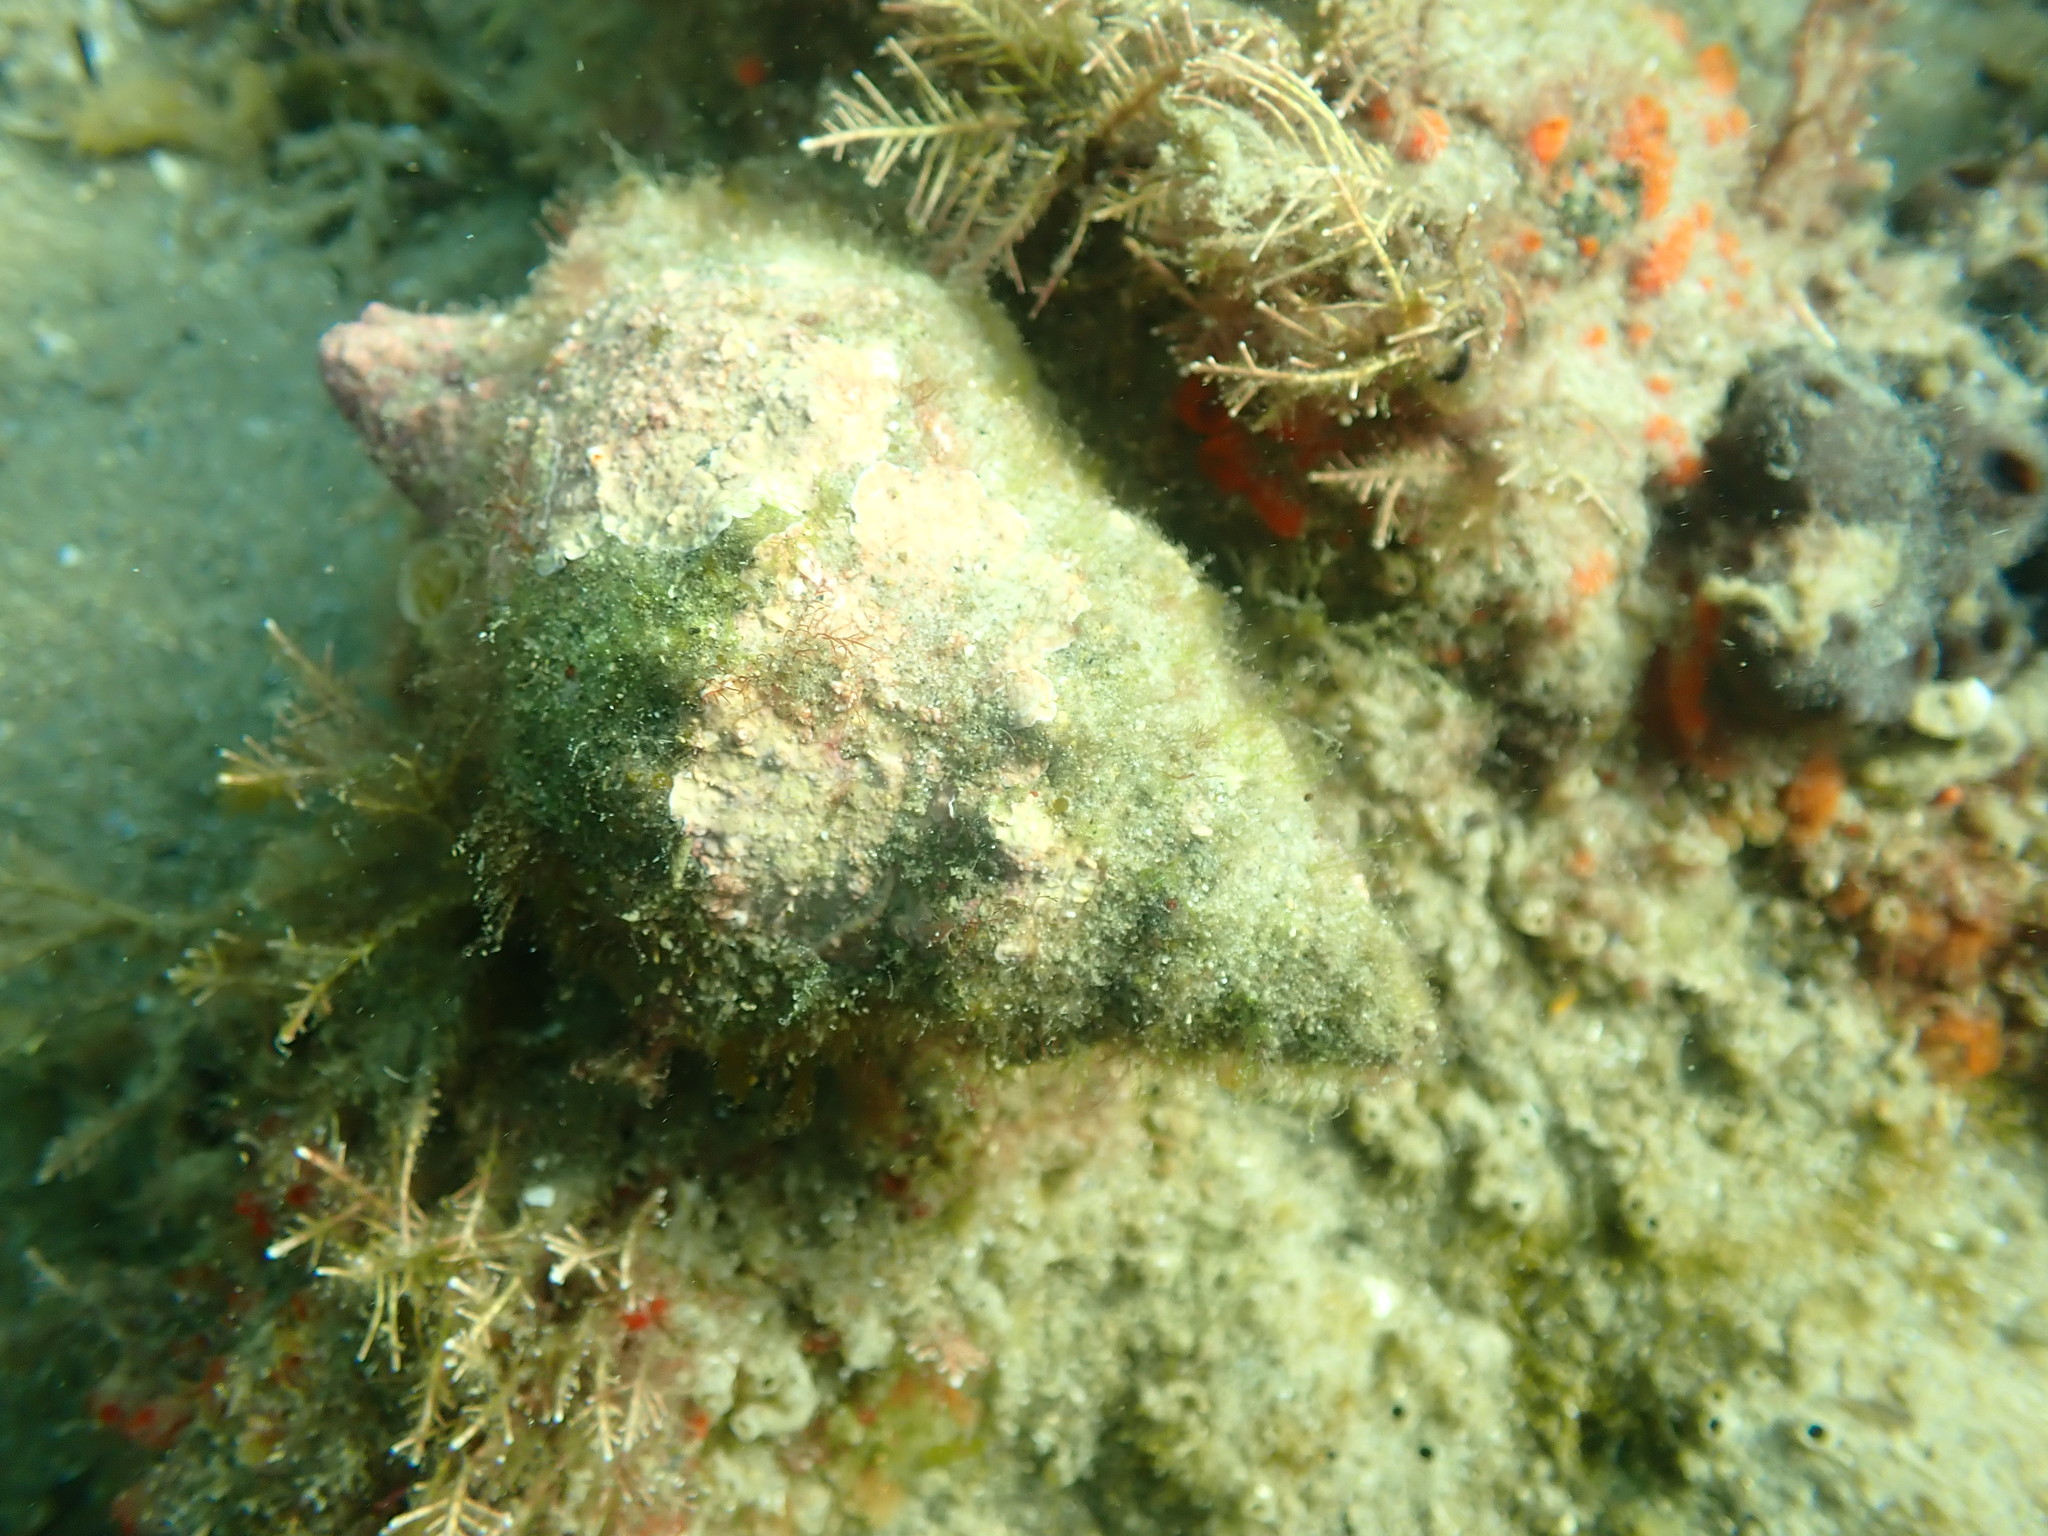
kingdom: Animalia
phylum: Mollusca
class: Gastropoda
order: Littorinimorpha
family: Ranellidae
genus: Ranella
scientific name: Ranella australasia
